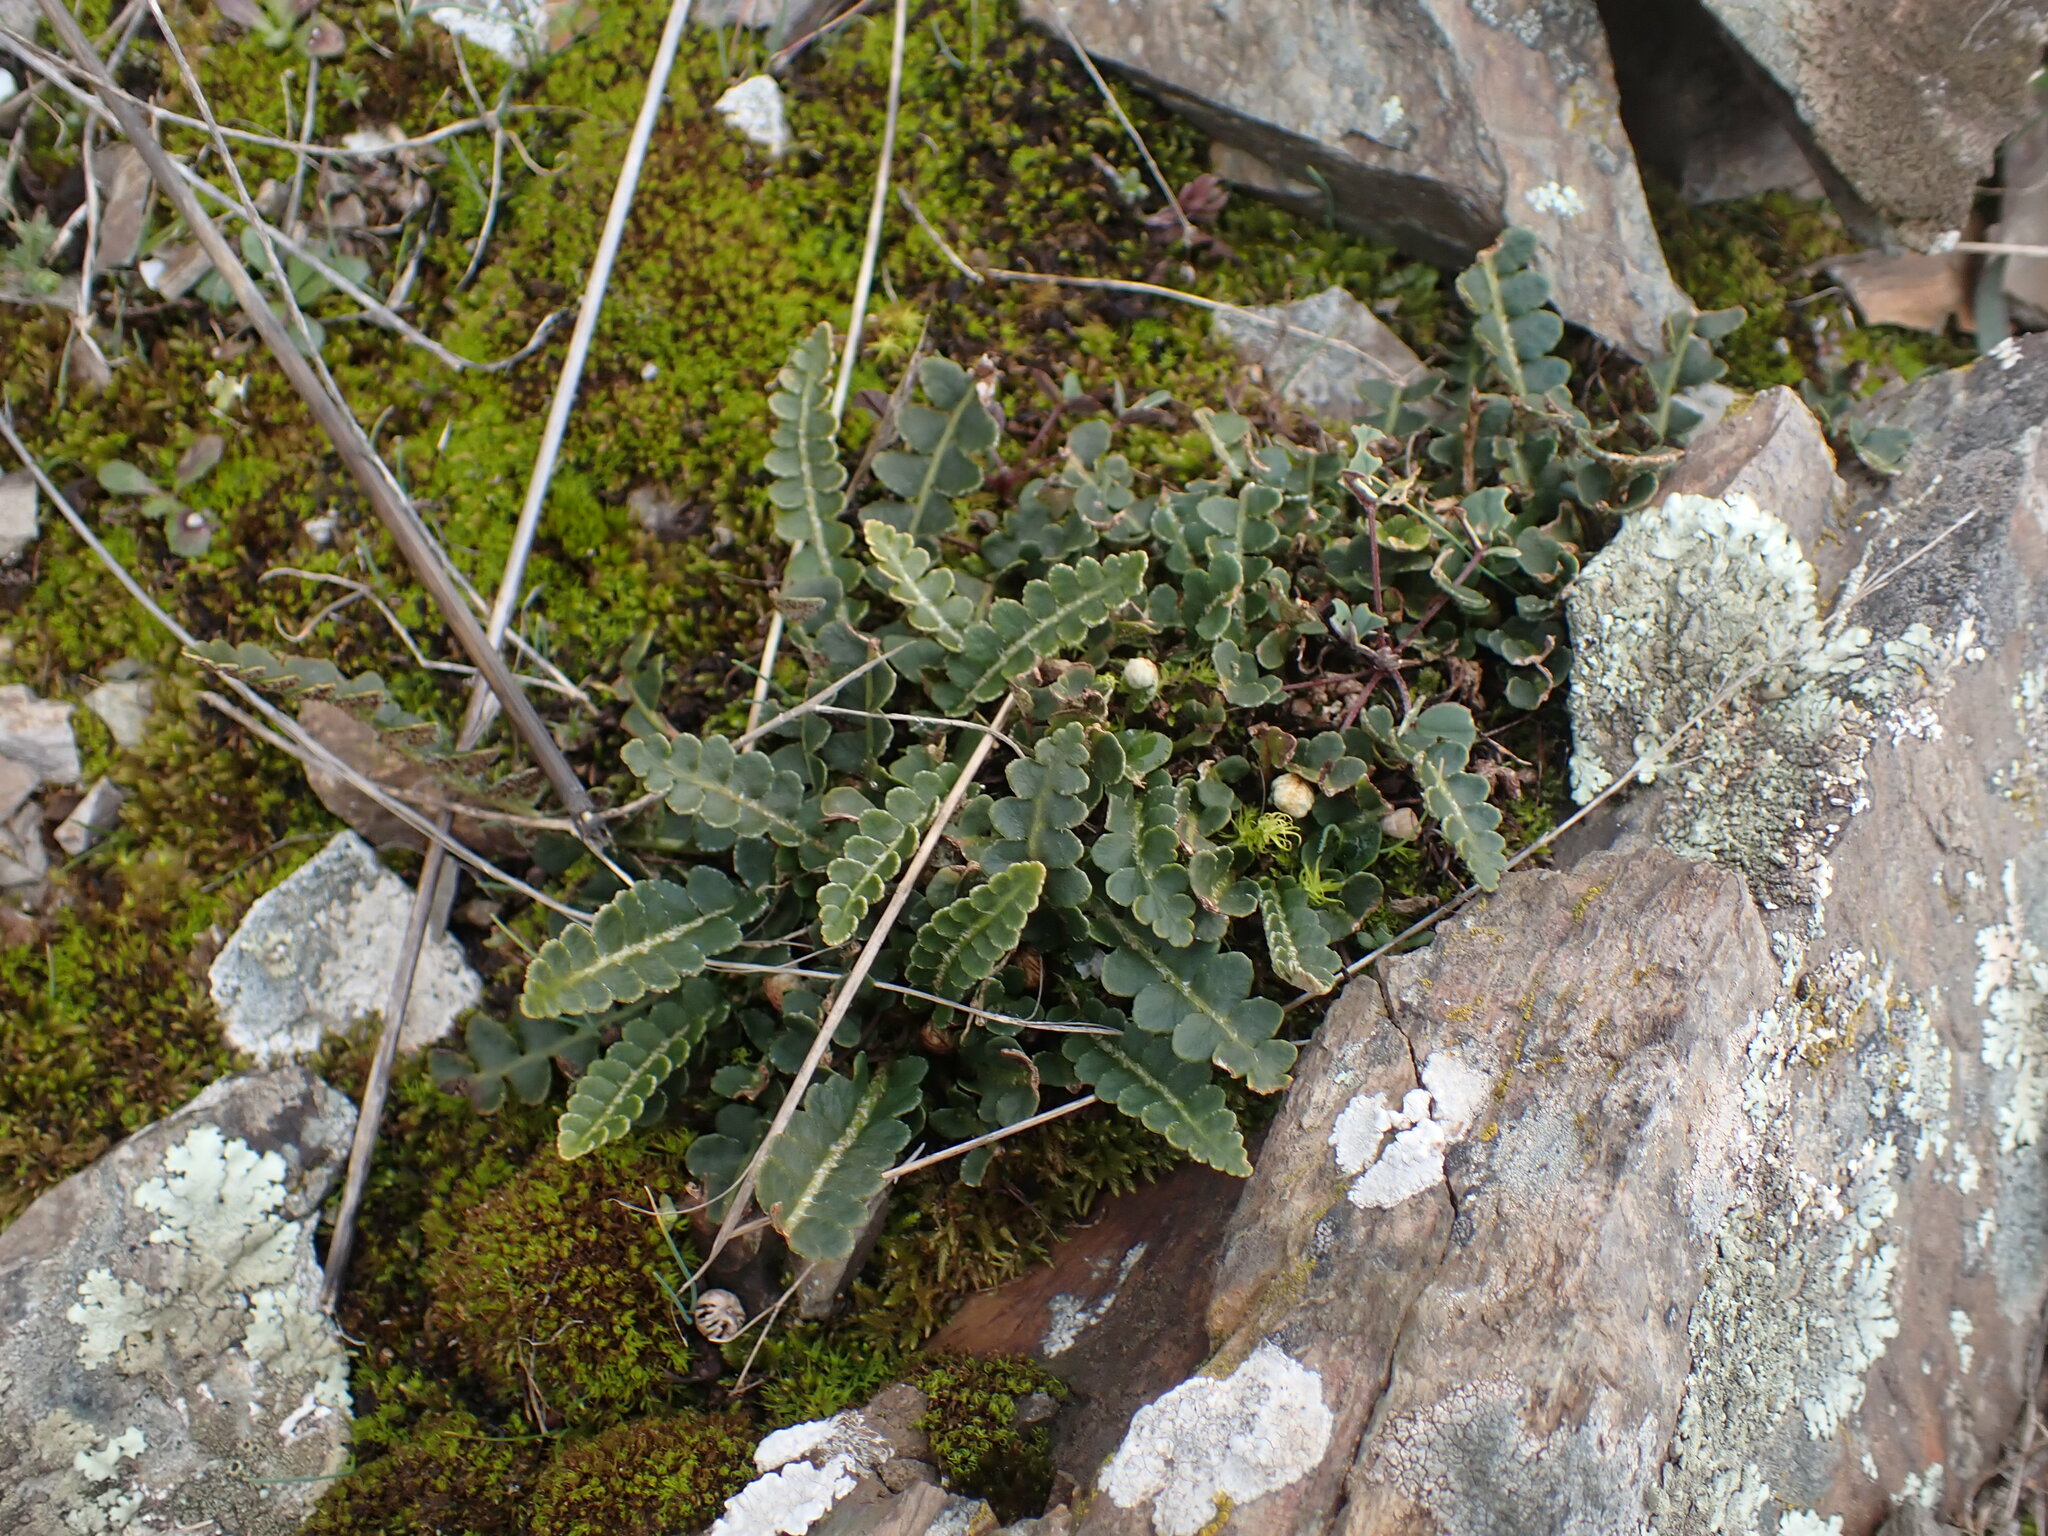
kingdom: Plantae
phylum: Tracheophyta
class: Polypodiopsida
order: Polypodiales
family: Aspleniaceae
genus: Asplenium
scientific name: Asplenium ceterach
